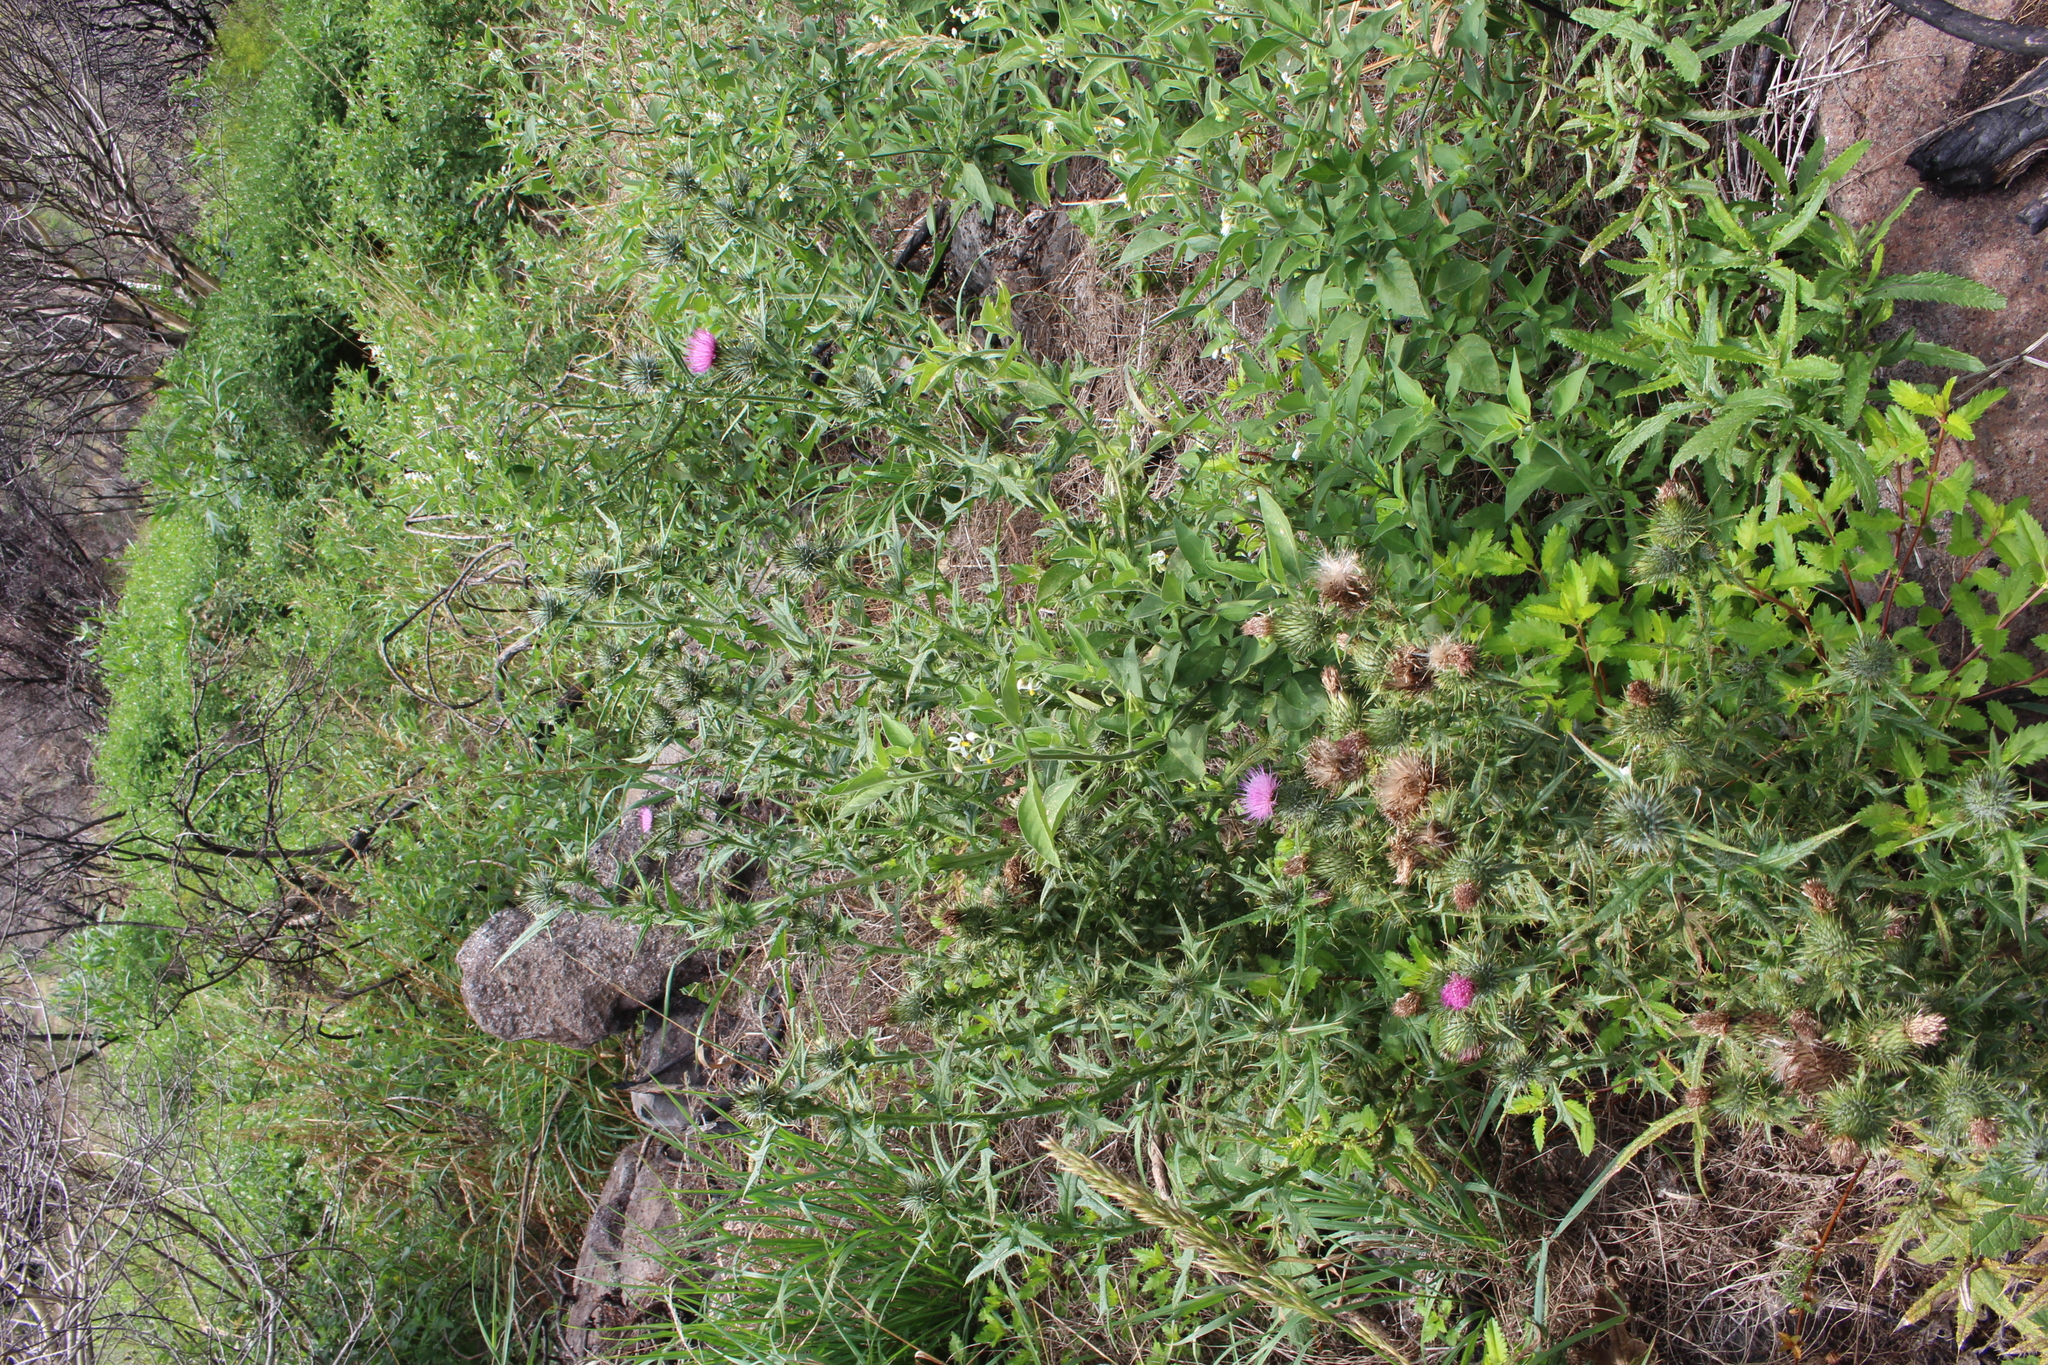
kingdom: Plantae
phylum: Tracheophyta
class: Magnoliopsida
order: Asterales
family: Asteraceae
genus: Cirsium
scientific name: Cirsium vulgare
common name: Bull thistle
